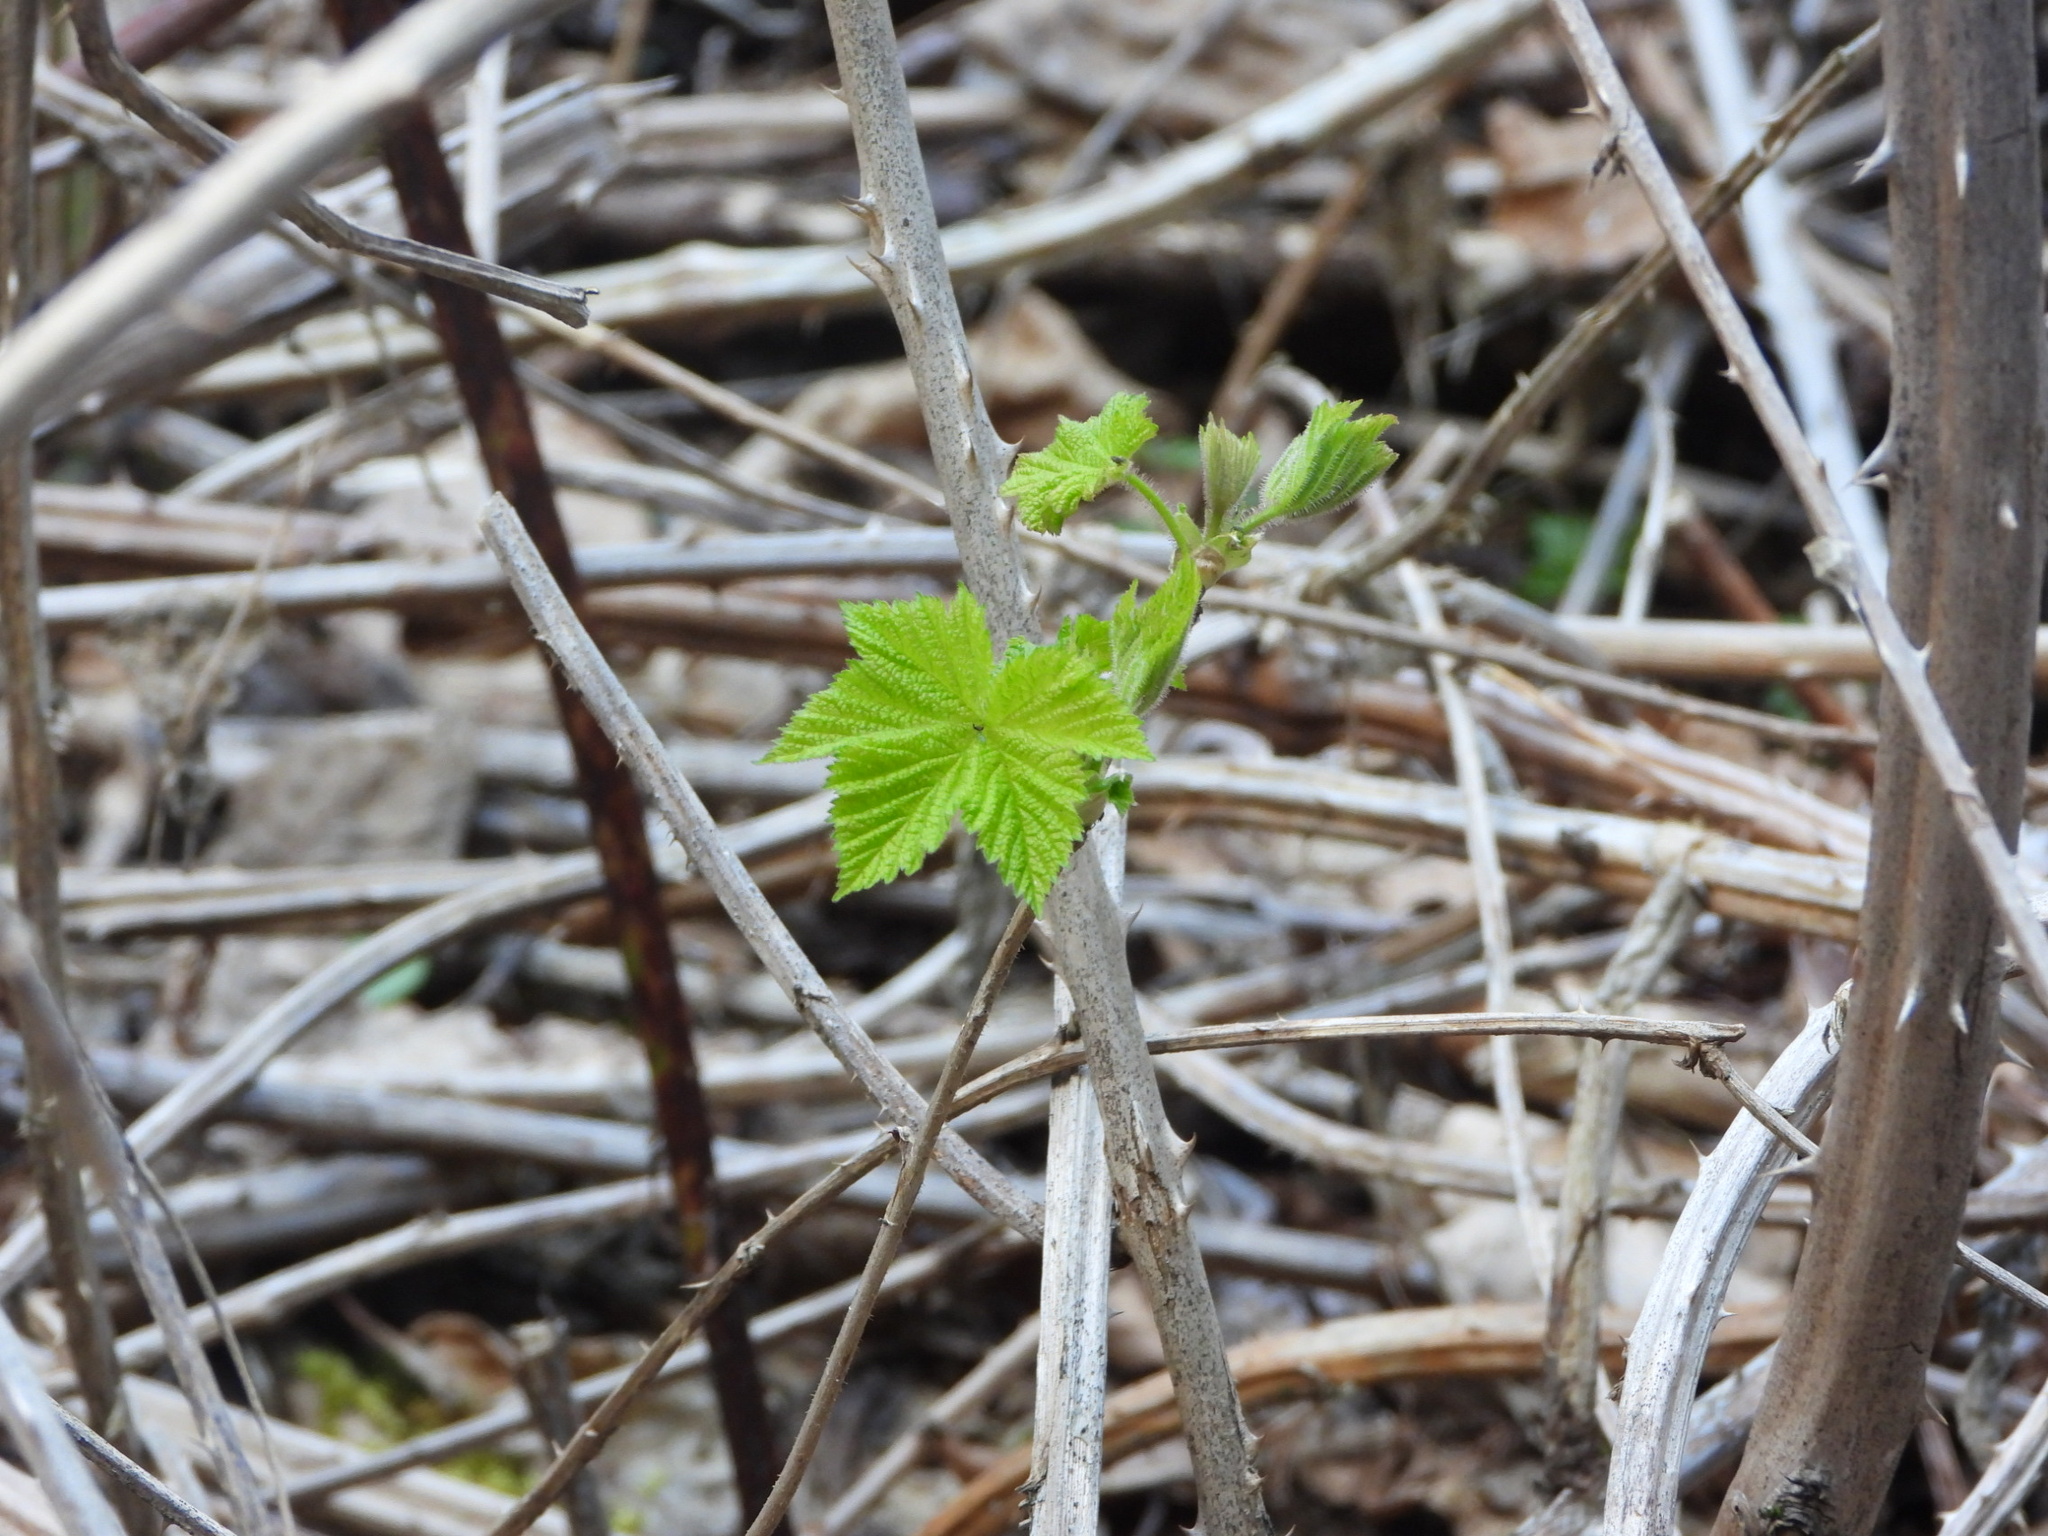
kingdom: Plantae
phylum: Tracheophyta
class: Magnoliopsida
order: Rosales
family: Rosaceae
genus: Rubus
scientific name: Rubus parviflorus
